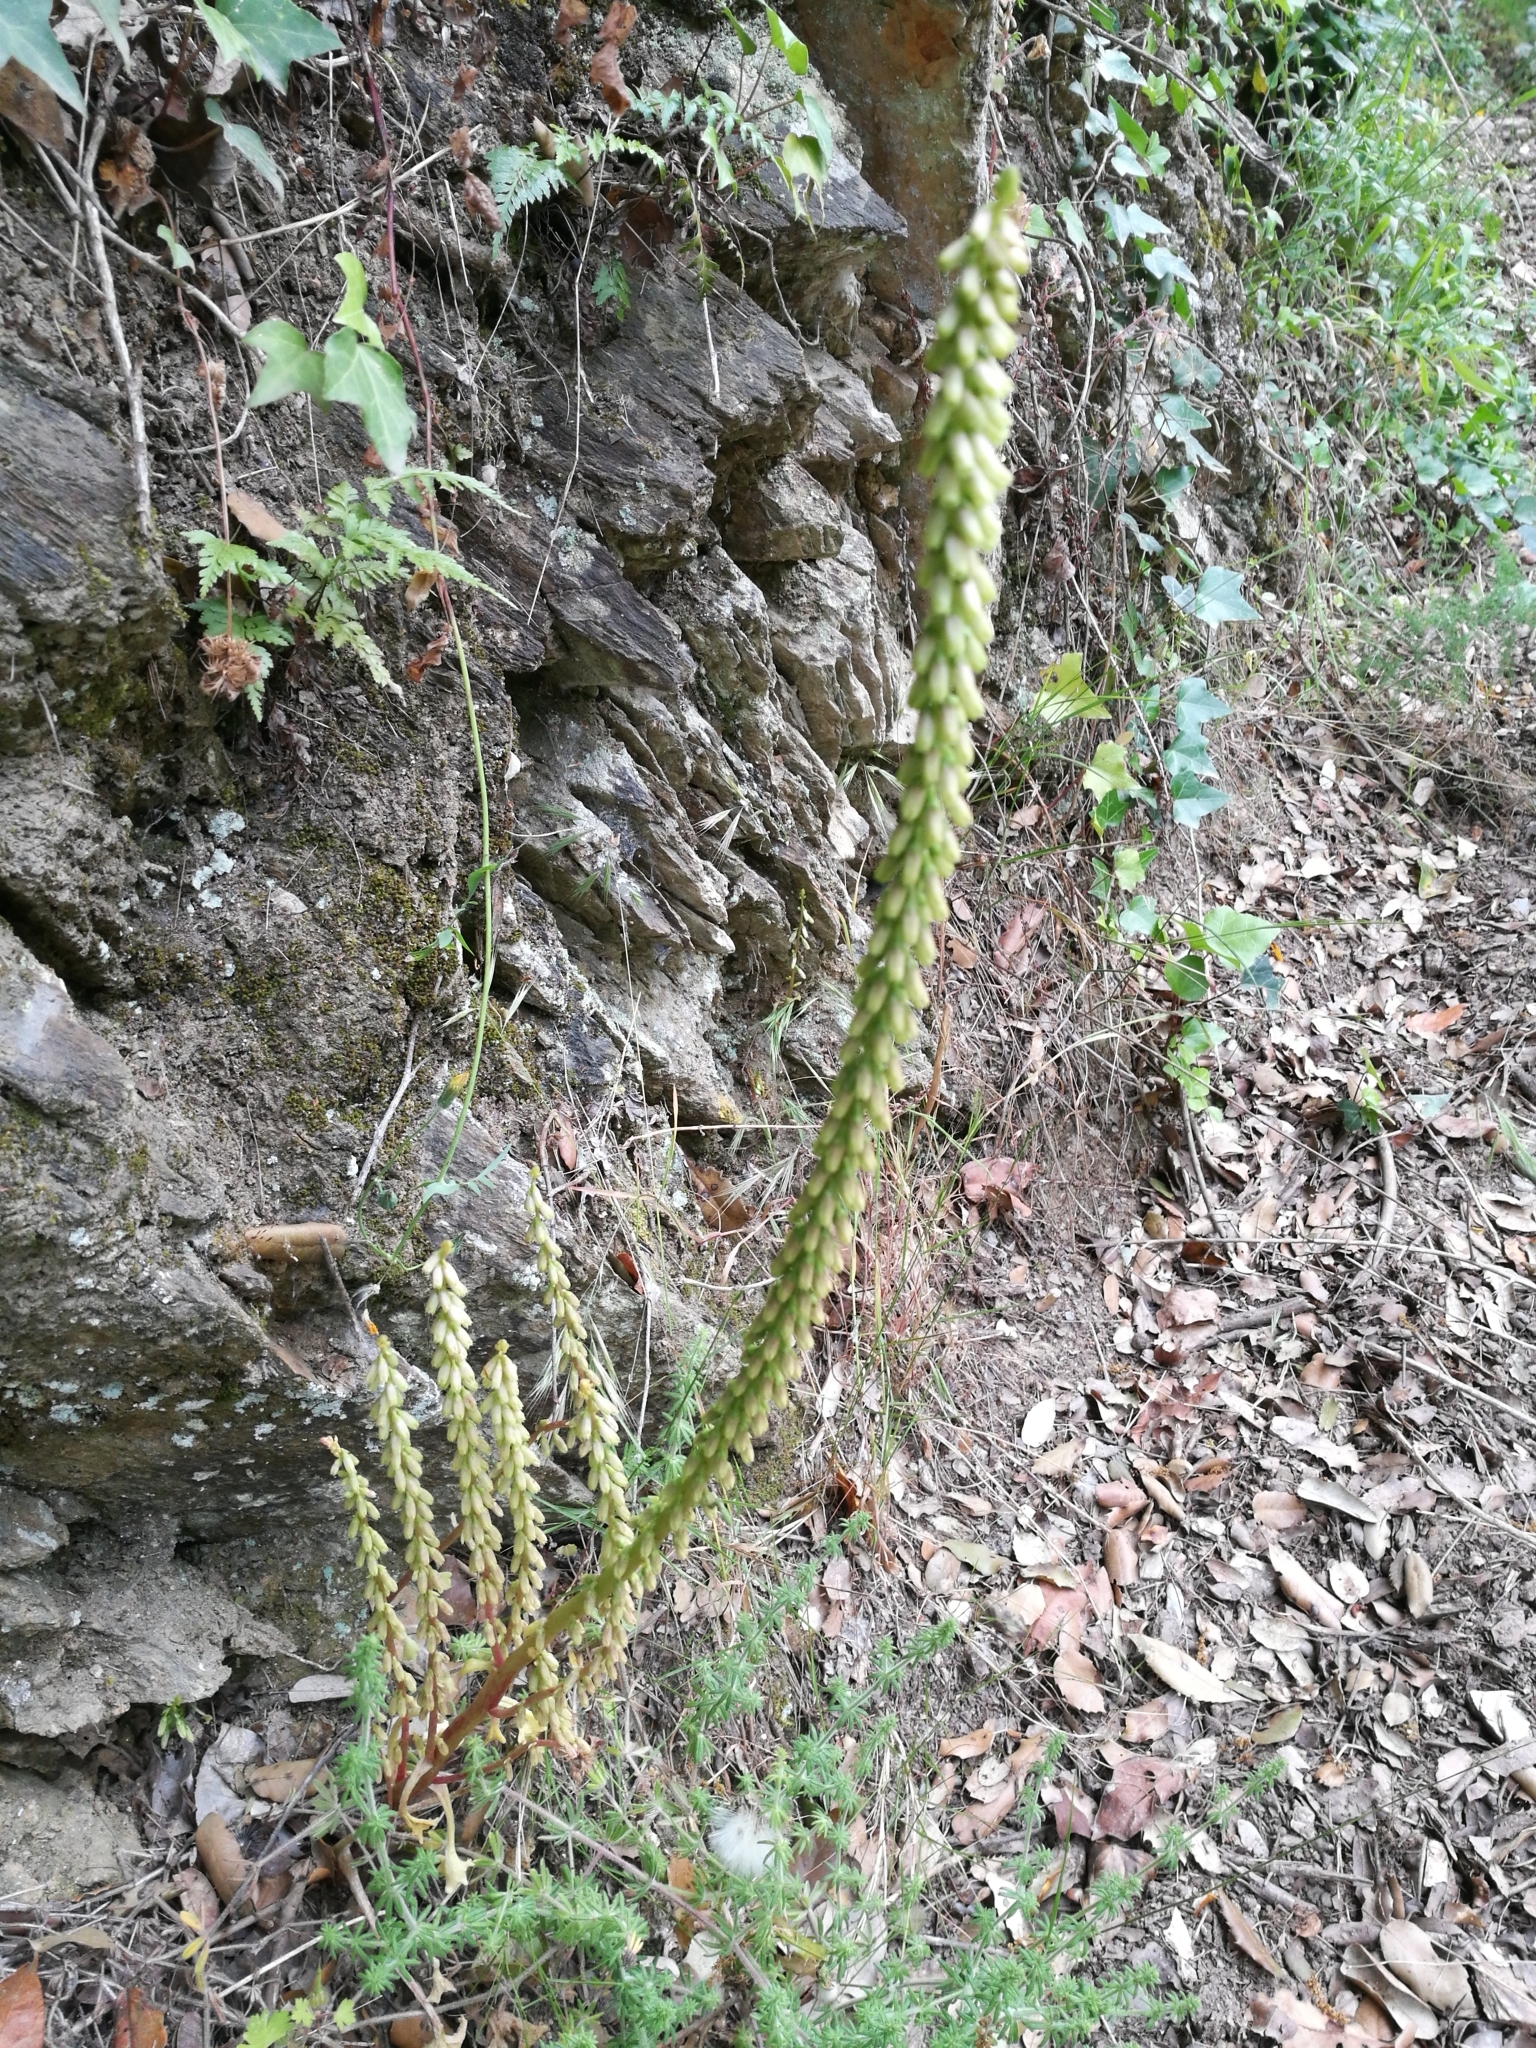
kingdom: Plantae
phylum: Tracheophyta
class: Magnoliopsida
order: Saxifragales
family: Crassulaceae
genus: Umbilicus
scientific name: Umbilicus rupestris
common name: Navelwort
